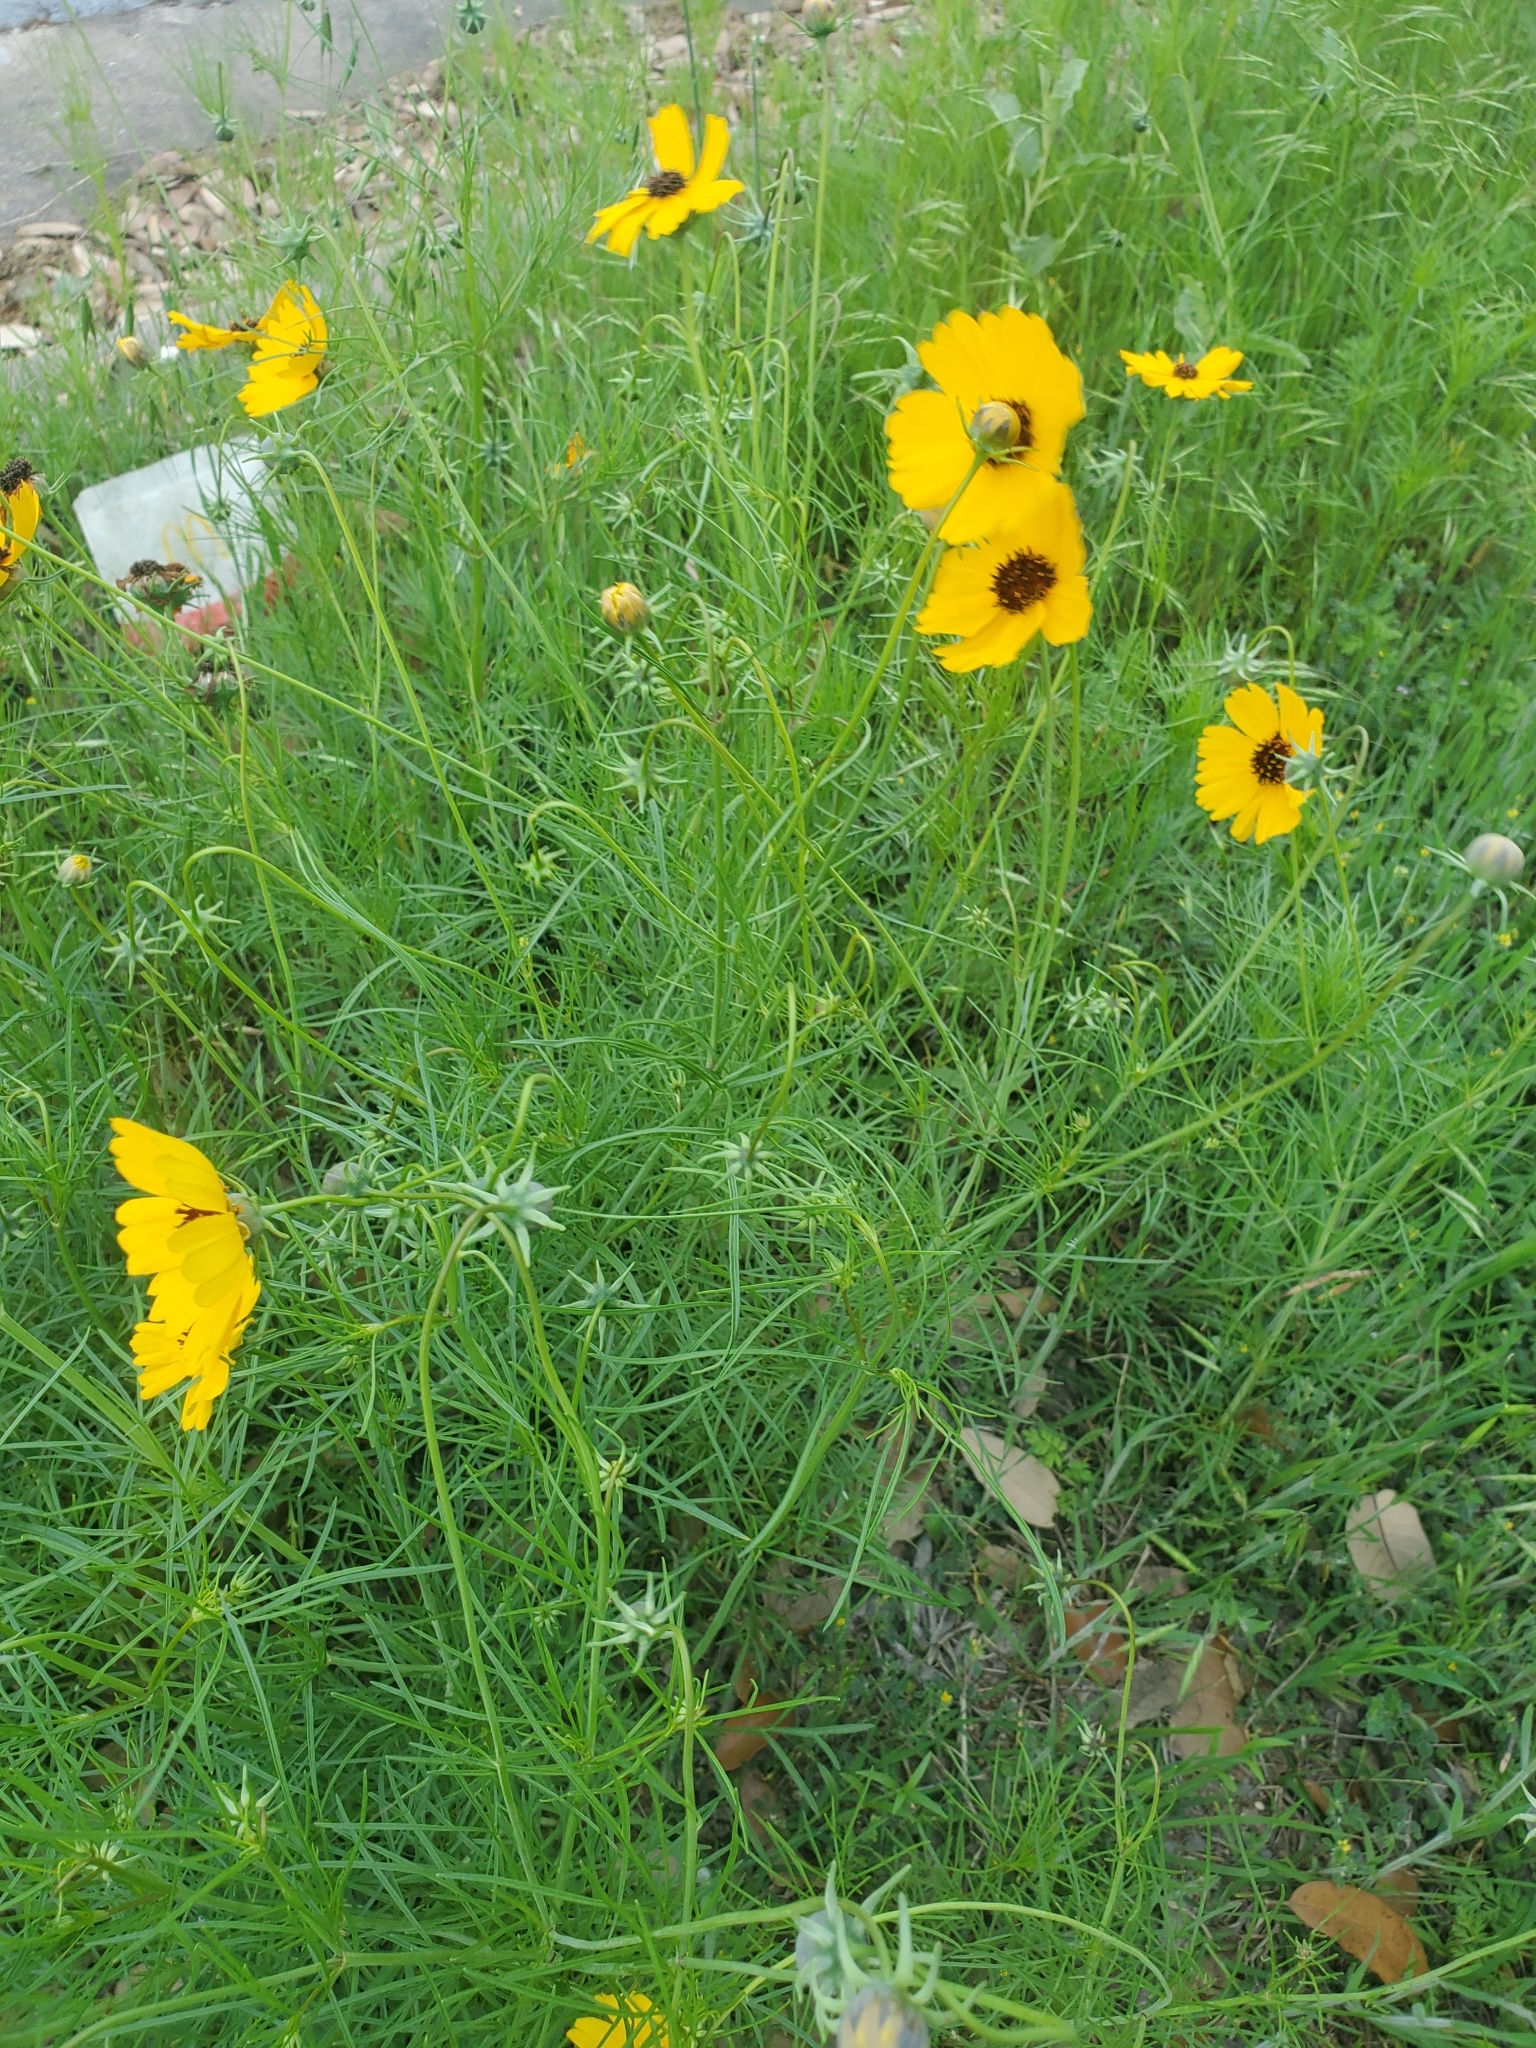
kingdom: Plantae
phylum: Tracheophyta
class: Magnoliopsida
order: Asterales
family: Asteraceae
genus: Thelesperma
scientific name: Thelesperma filifolium
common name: Stiff greenthread
